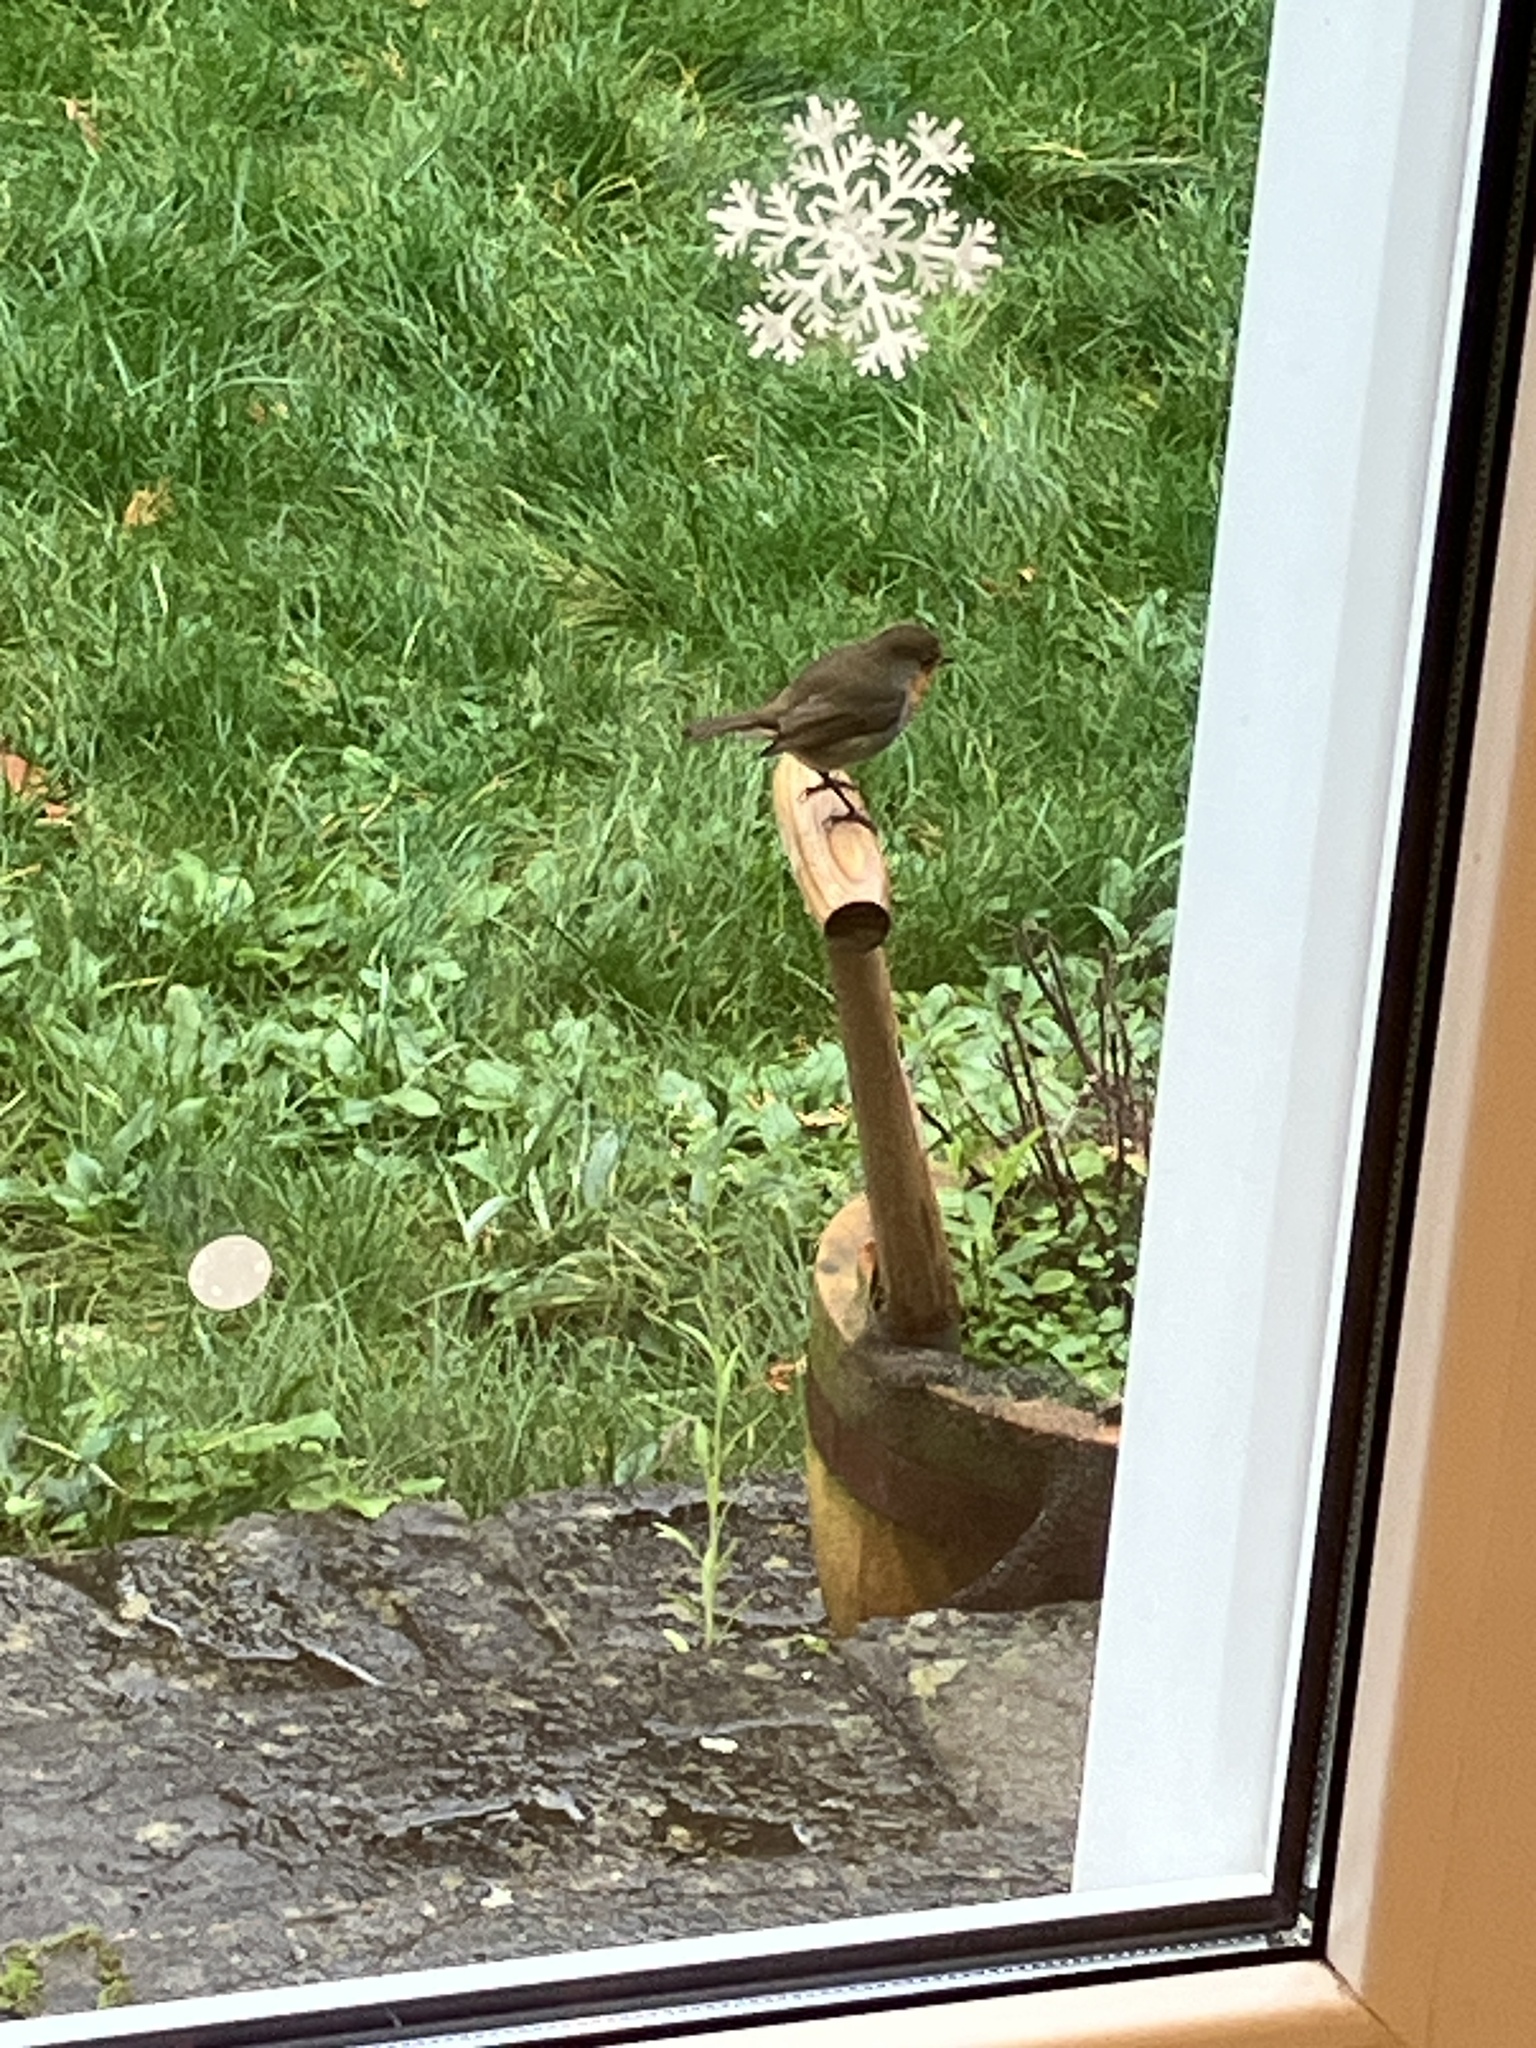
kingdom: Animalia
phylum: Chordata
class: Aves
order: Passeriformes
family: Muscicapidae
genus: Erithacus
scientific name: Erithacus rubecula
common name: European robin
